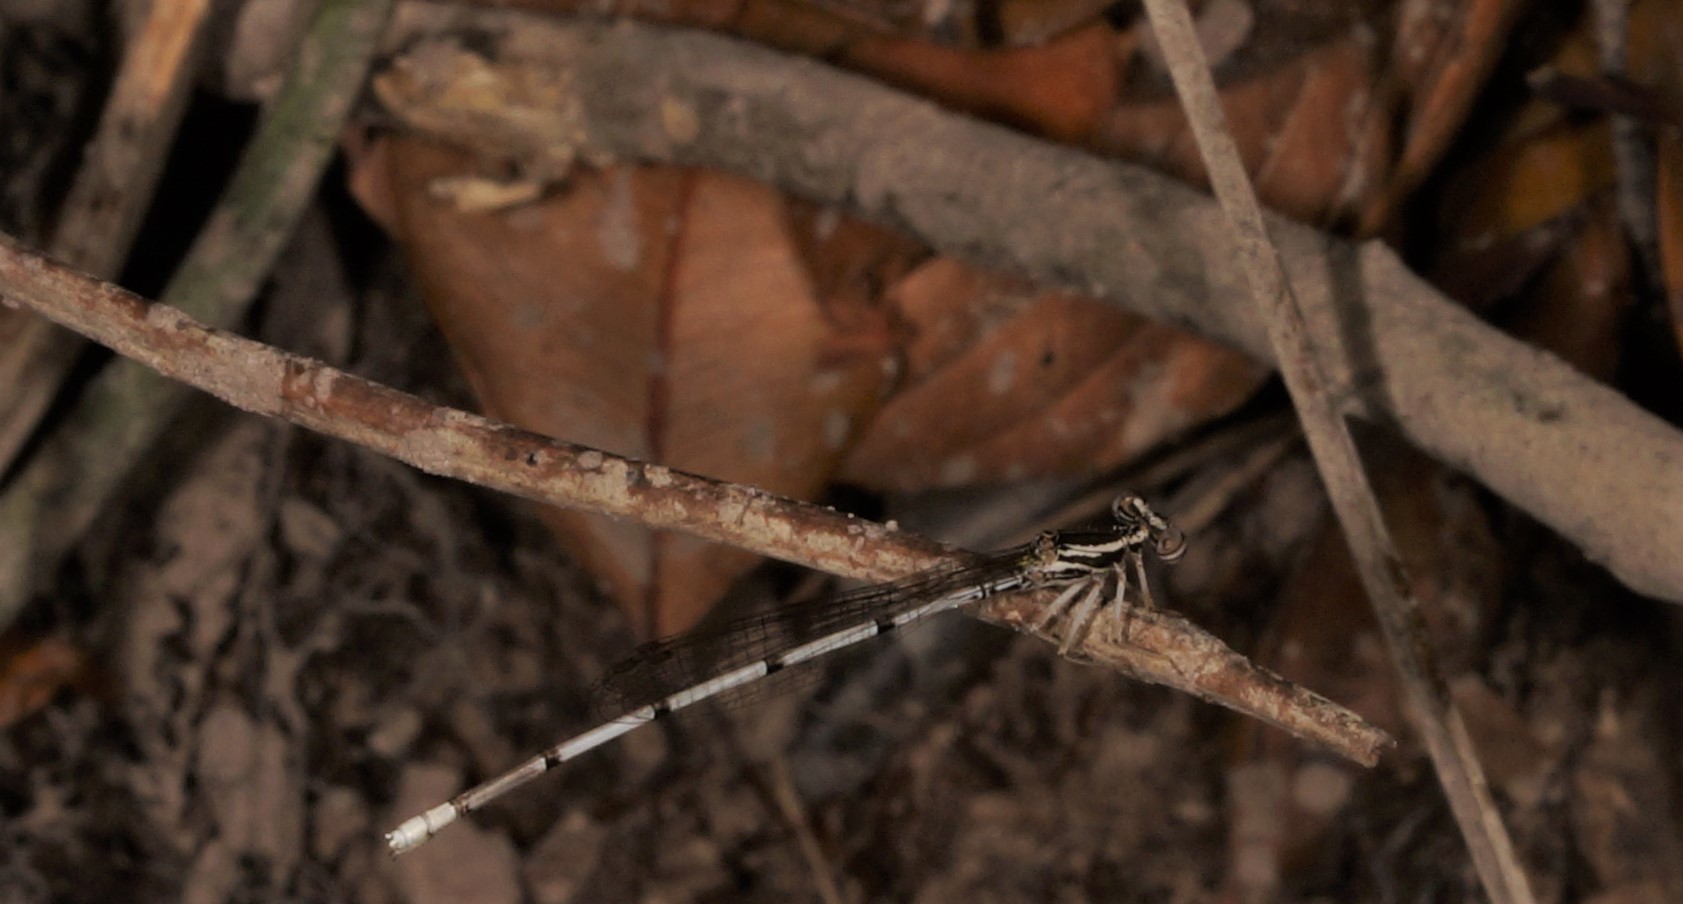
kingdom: Animalia
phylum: Arthropoda
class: Insecta
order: Odonata
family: Platycnemididae
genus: Copera
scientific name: Copera vittata
